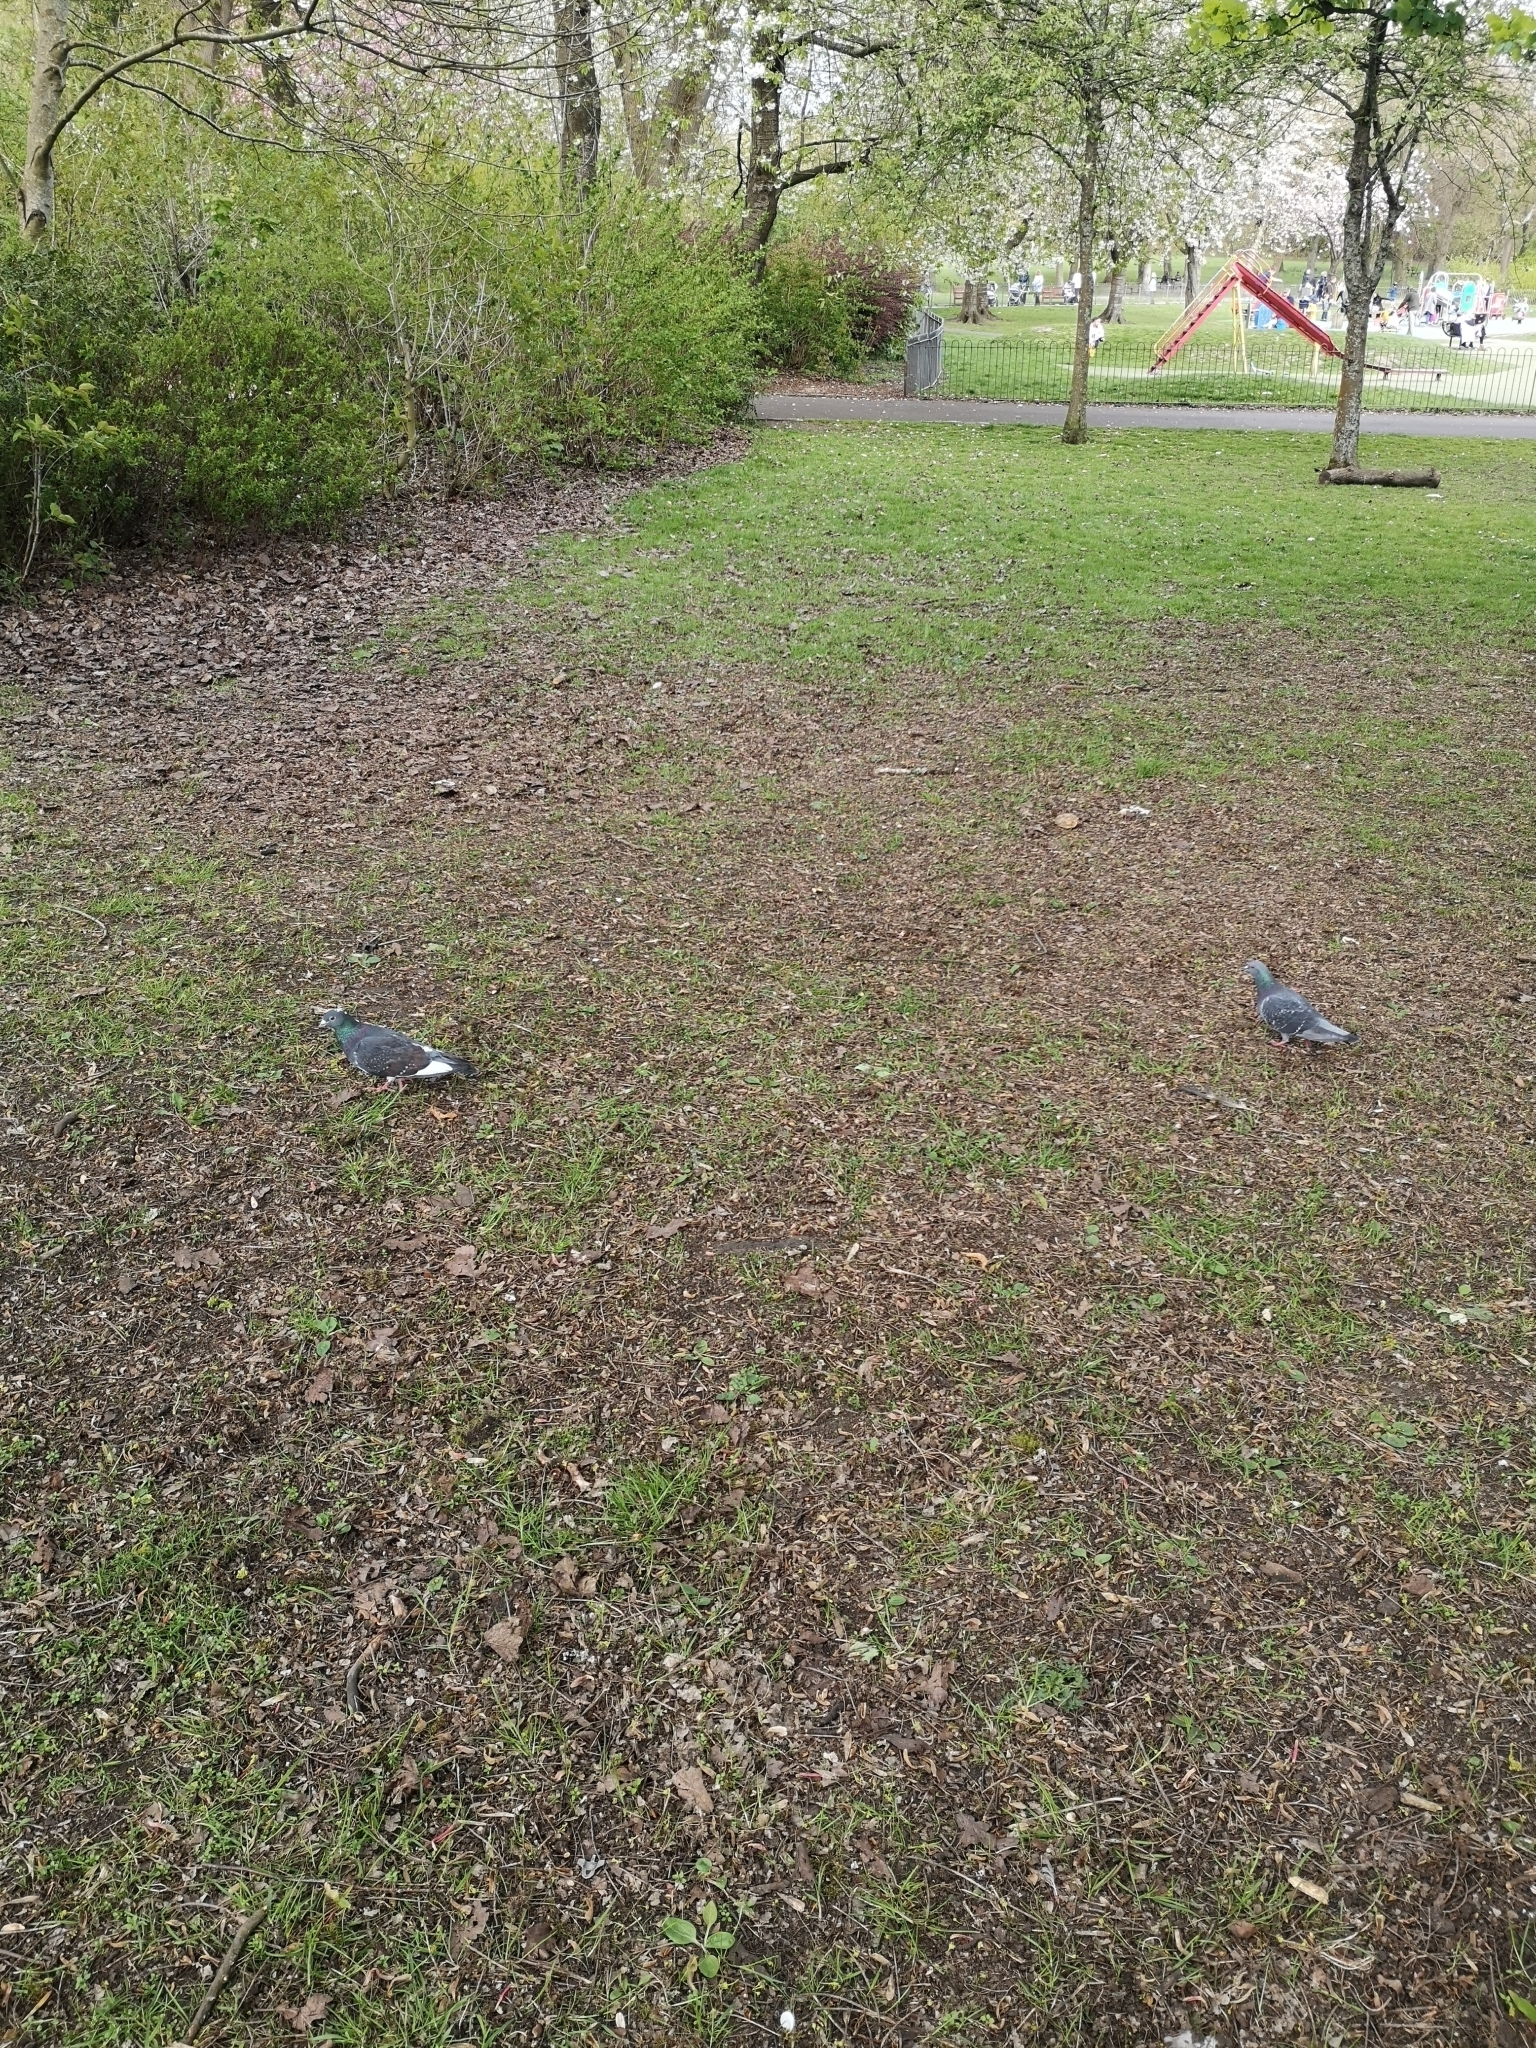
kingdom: Animalia
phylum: Chordata
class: Aves
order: Columbiformes
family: Columbidae
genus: Columba
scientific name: Columba livia
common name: Rock pigeon
